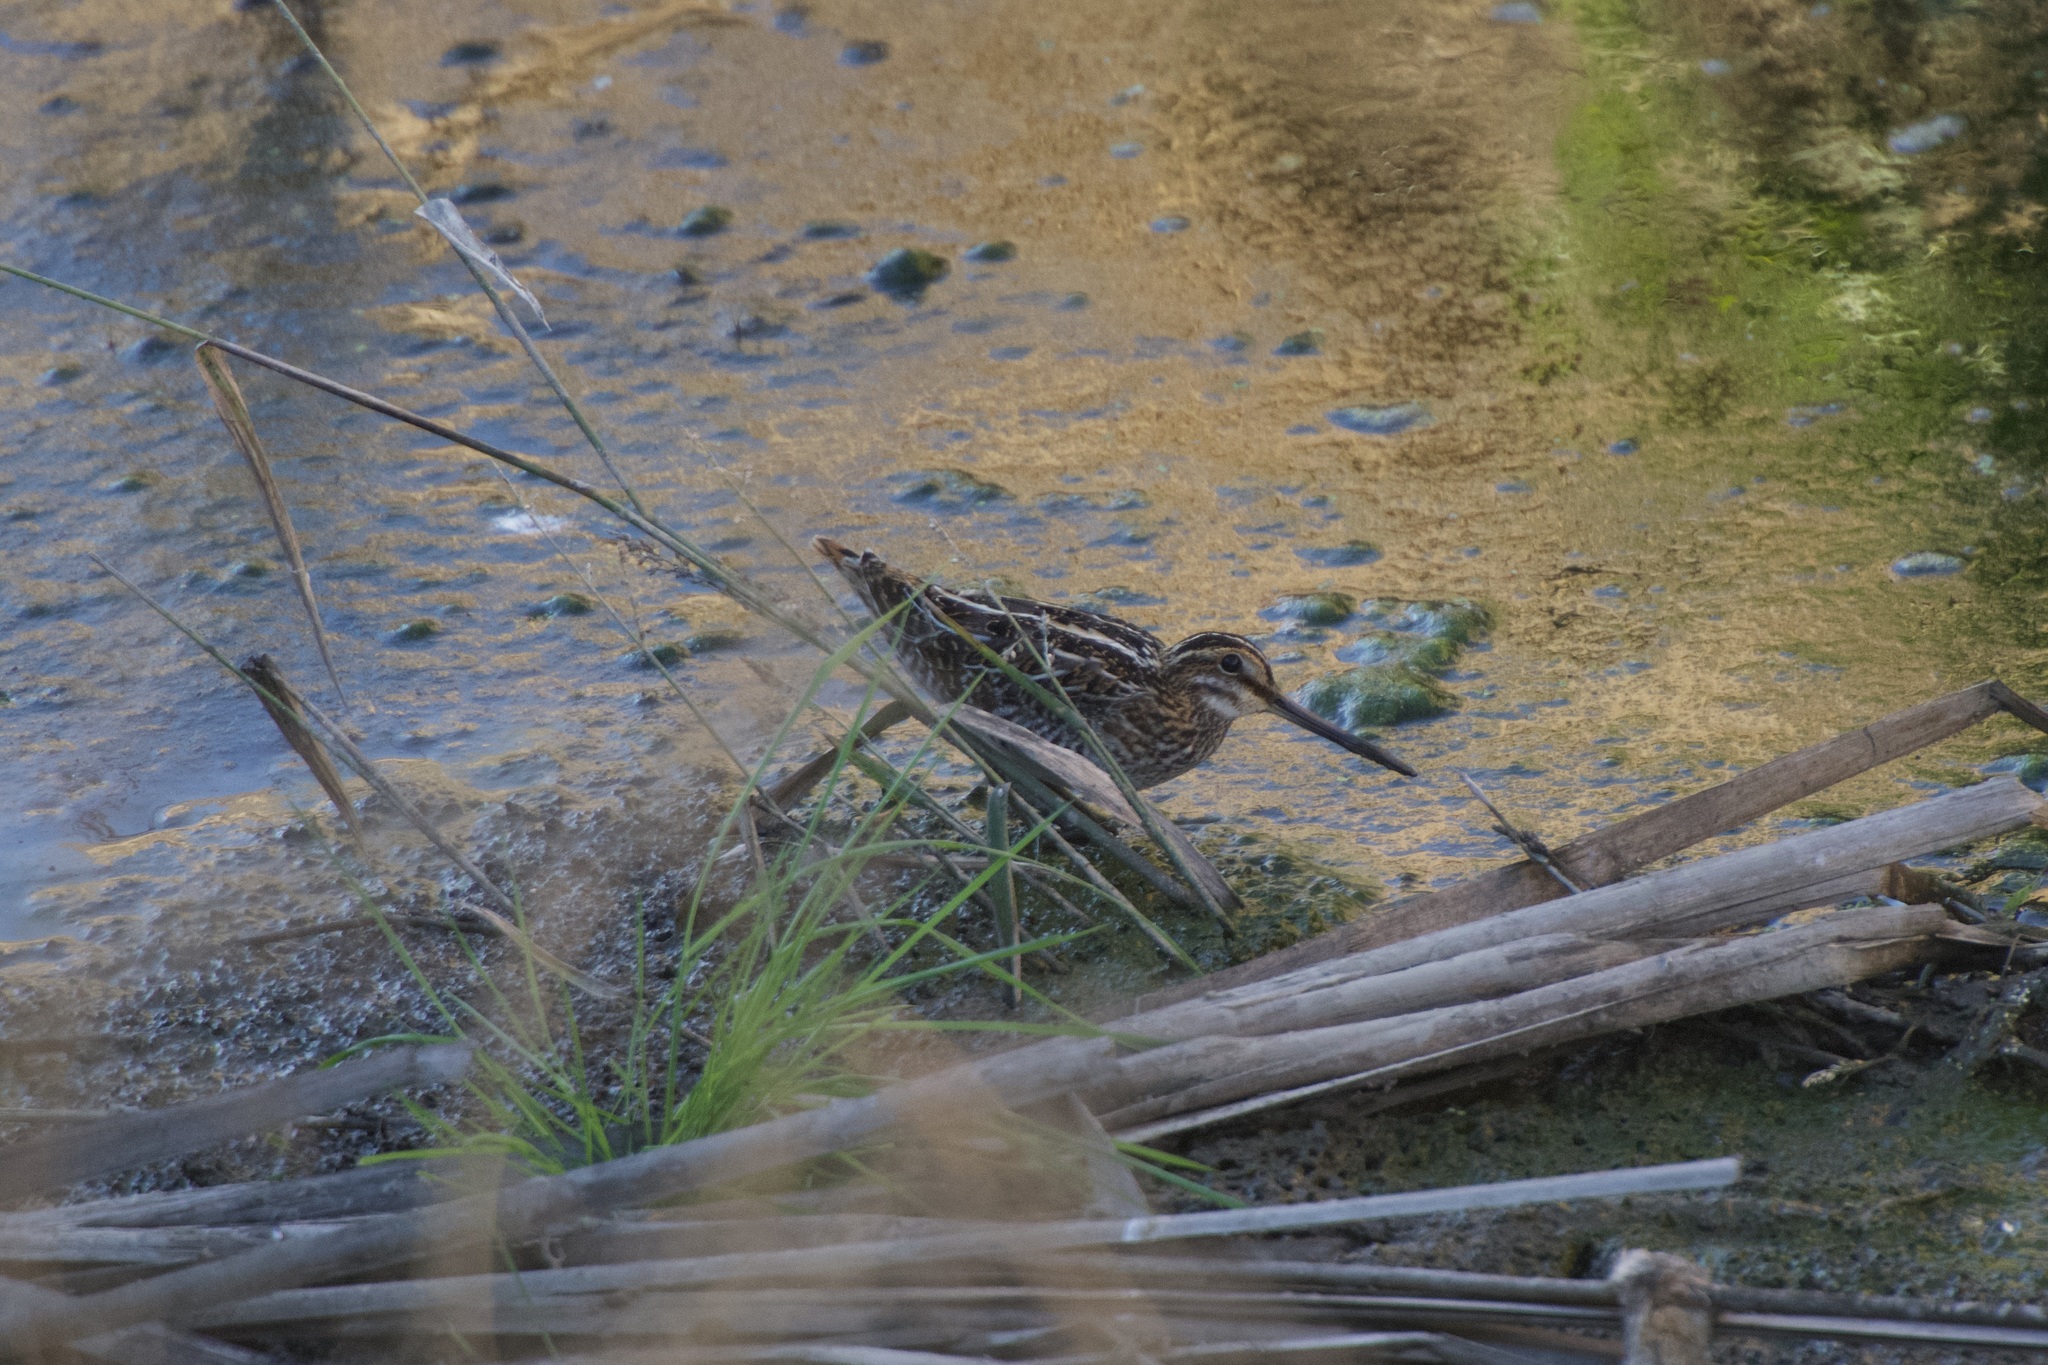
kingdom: Animalia
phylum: Chordata
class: Aves
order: Charadriiformes
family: Scolopacidae
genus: Gallinago
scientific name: Gallinago delicata
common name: Wilson's snipe
